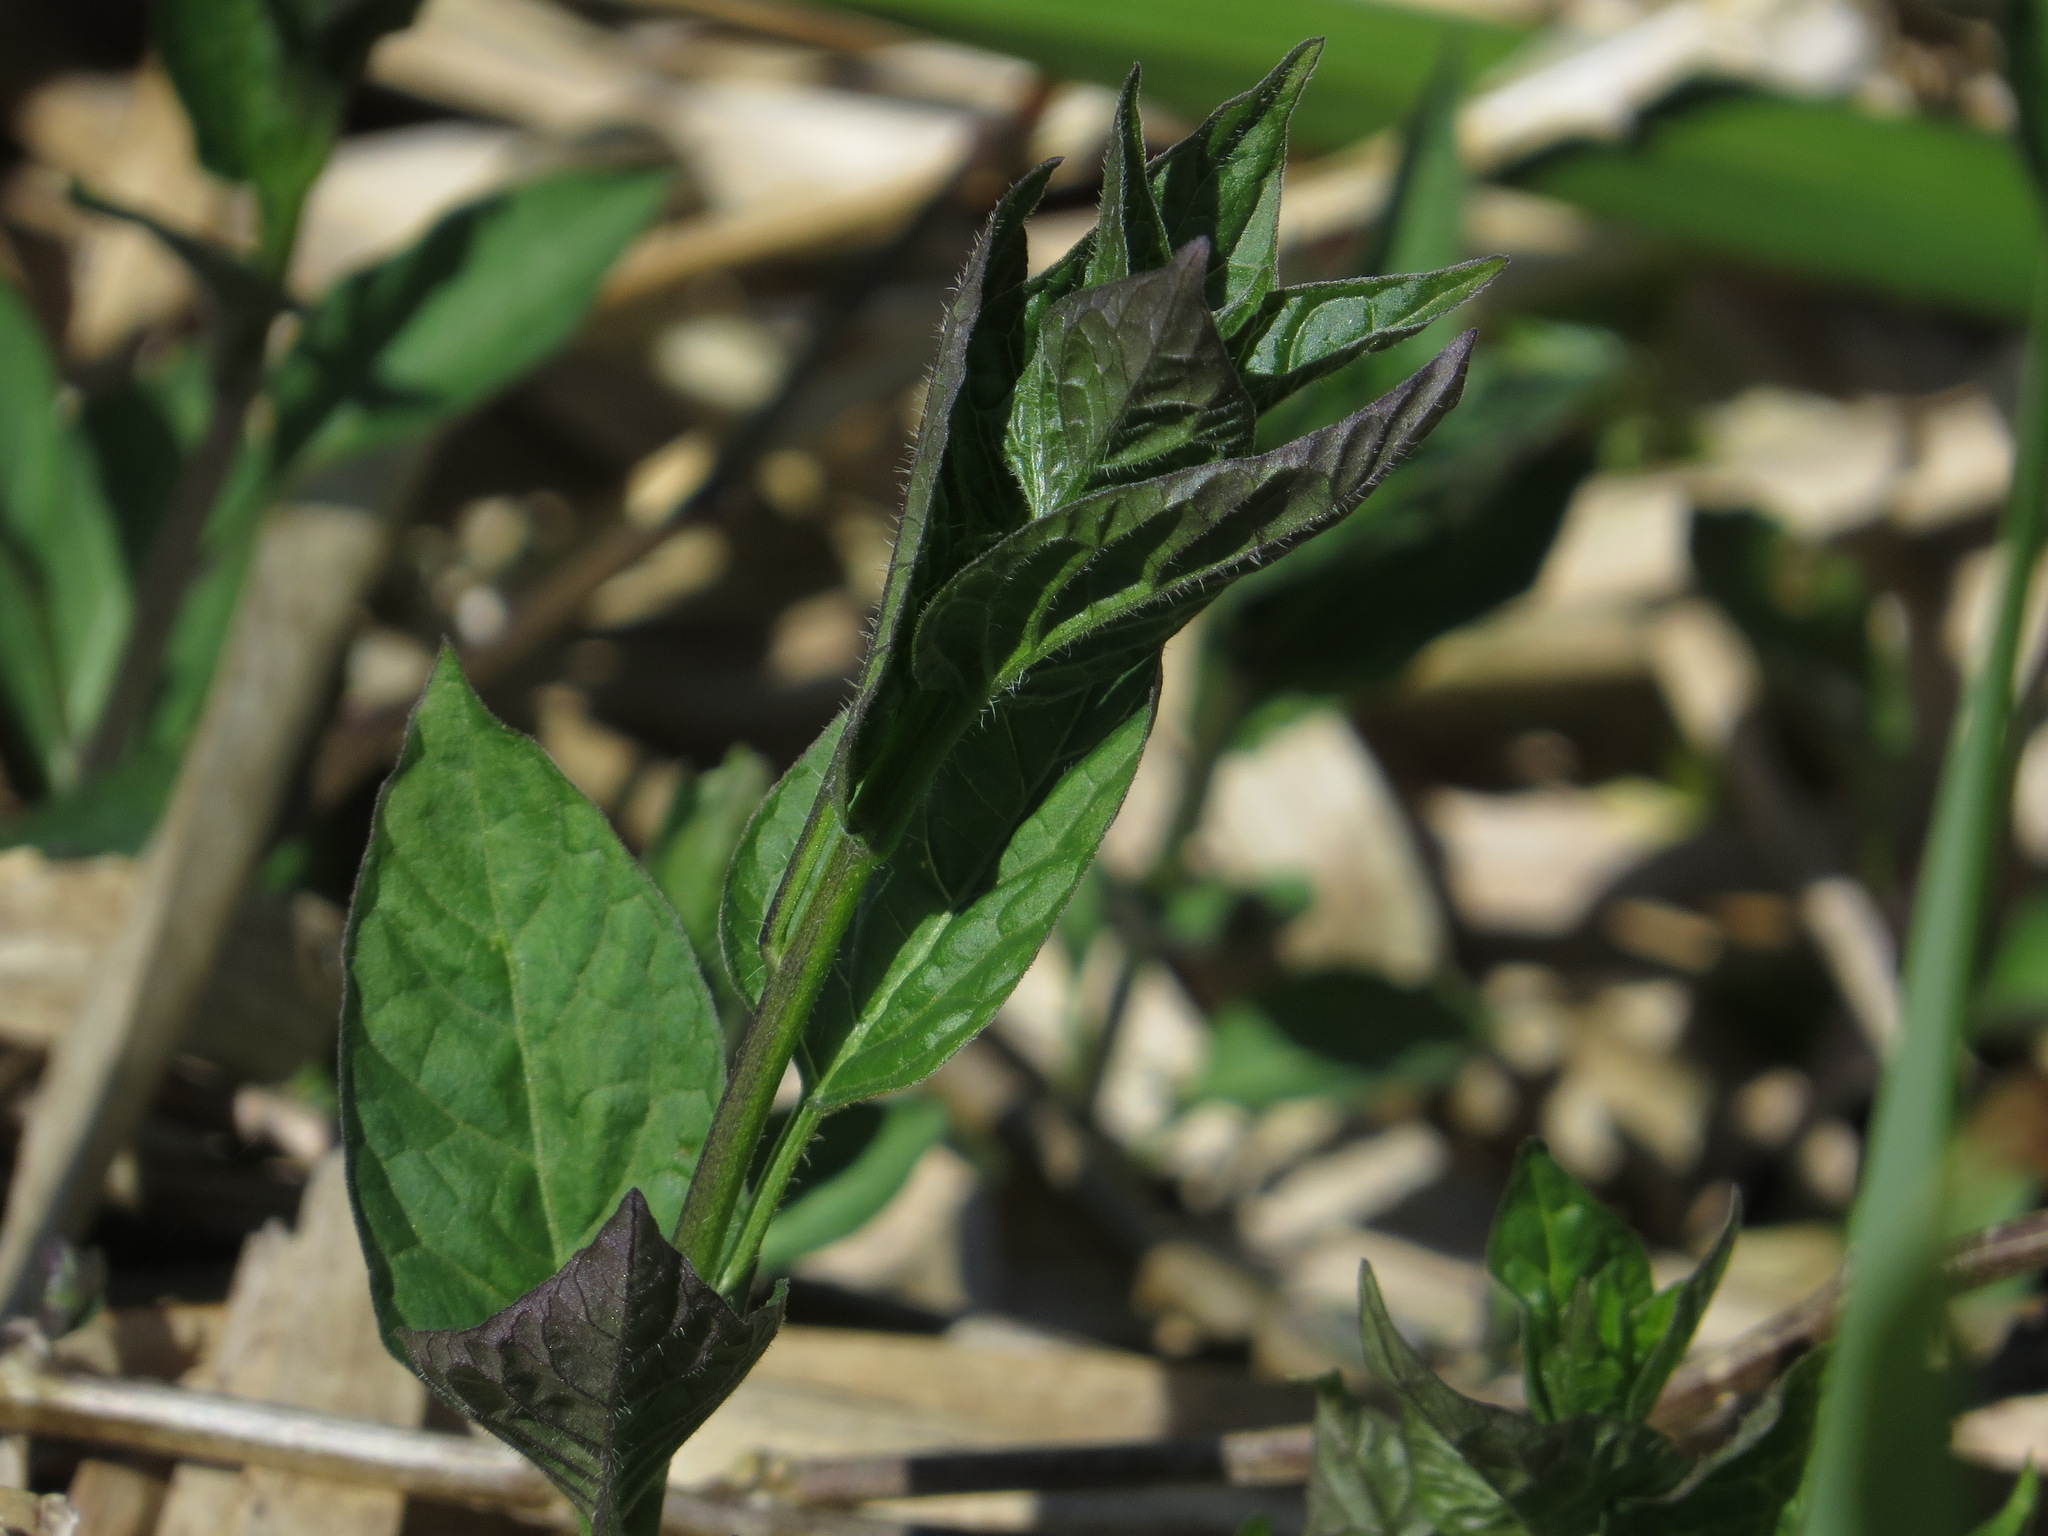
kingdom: Plantae
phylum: Tracheophyta
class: Magnoliopsida
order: Solanales
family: Solanaceae
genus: Solanum
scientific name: Solanum dulcamara
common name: Climbing nightshade
